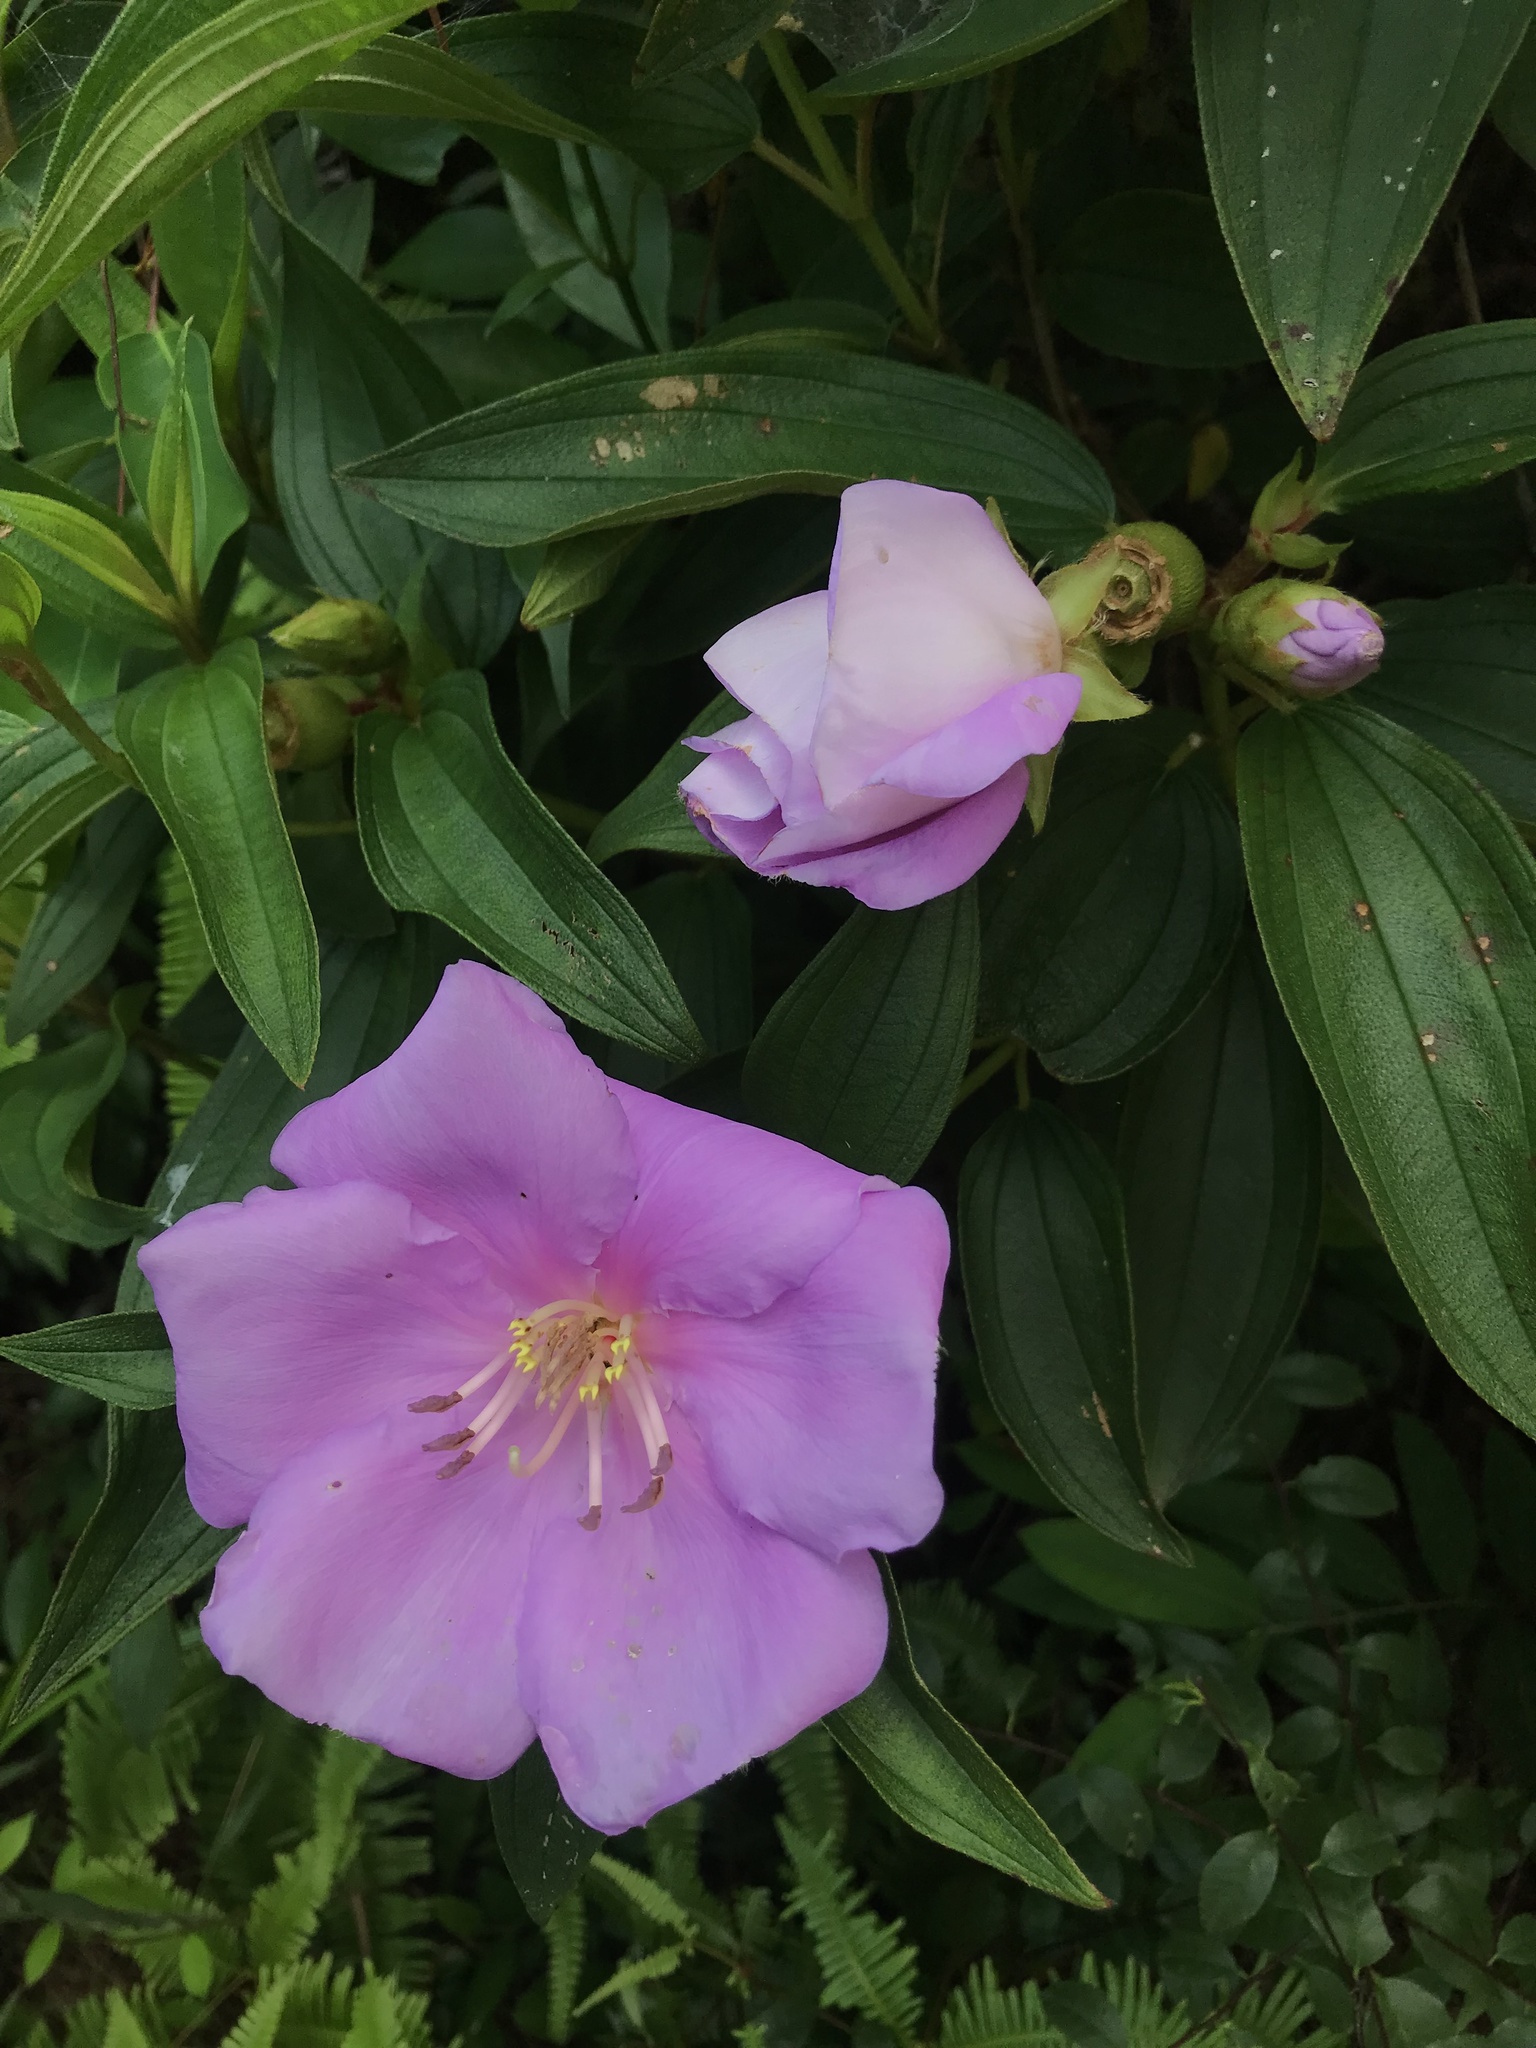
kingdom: Plantae
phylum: Tracheophyta
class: Magnoliopsida
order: Myrtales
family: Melastomataceae
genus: Melastoma
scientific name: Melastoma malabathricum
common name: Indian-rhododendron
